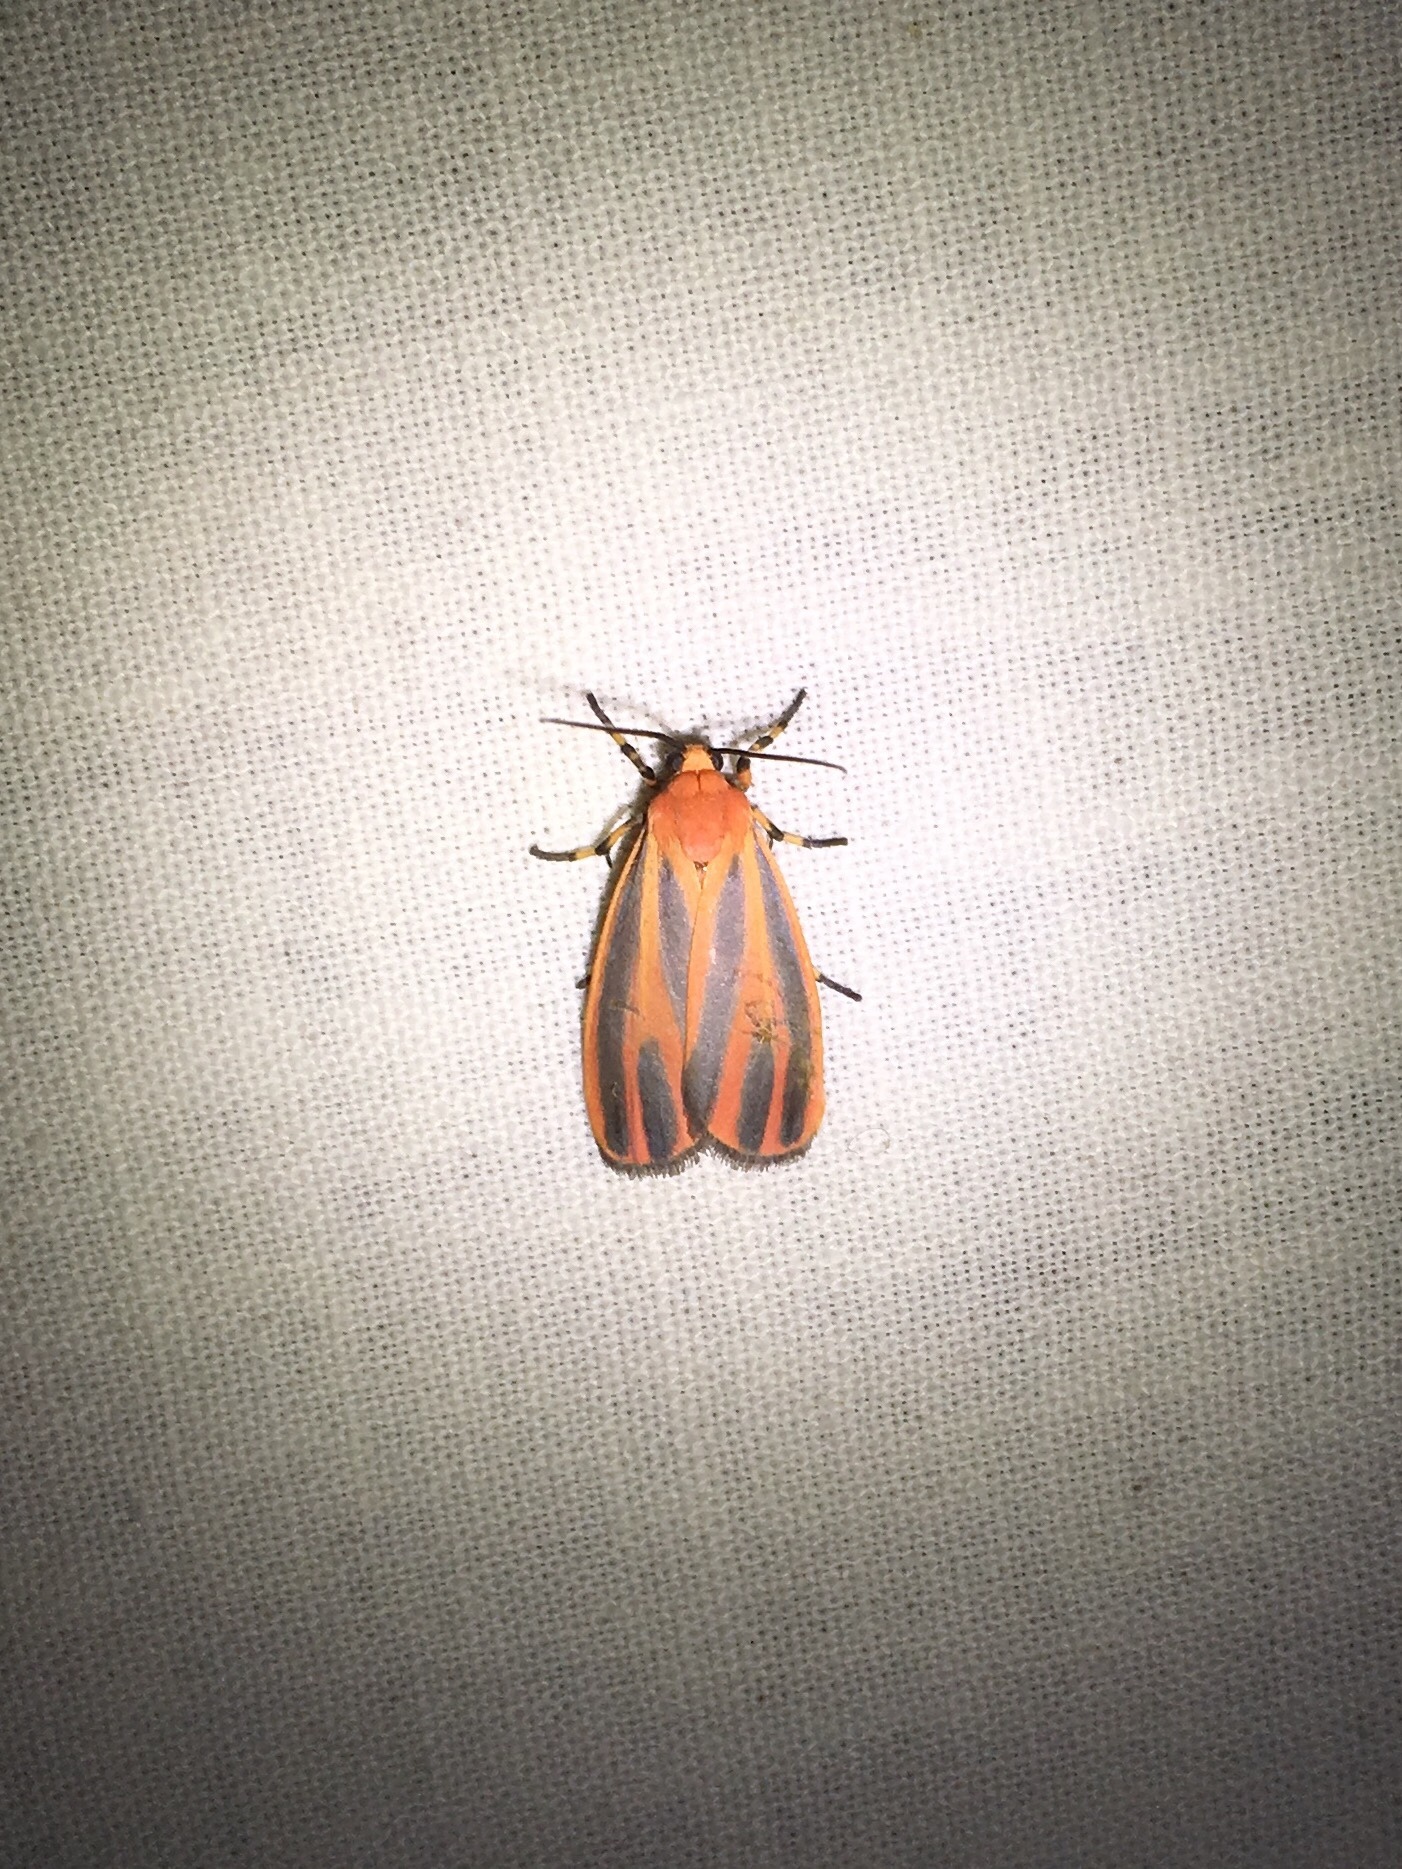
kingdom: Animalia
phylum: Arthropoda
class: Insecta
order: Lepidoptera
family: Erebidae
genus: Hypoprepia
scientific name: Hypoprepia miniata
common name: Scarlet-winged lichen moth
